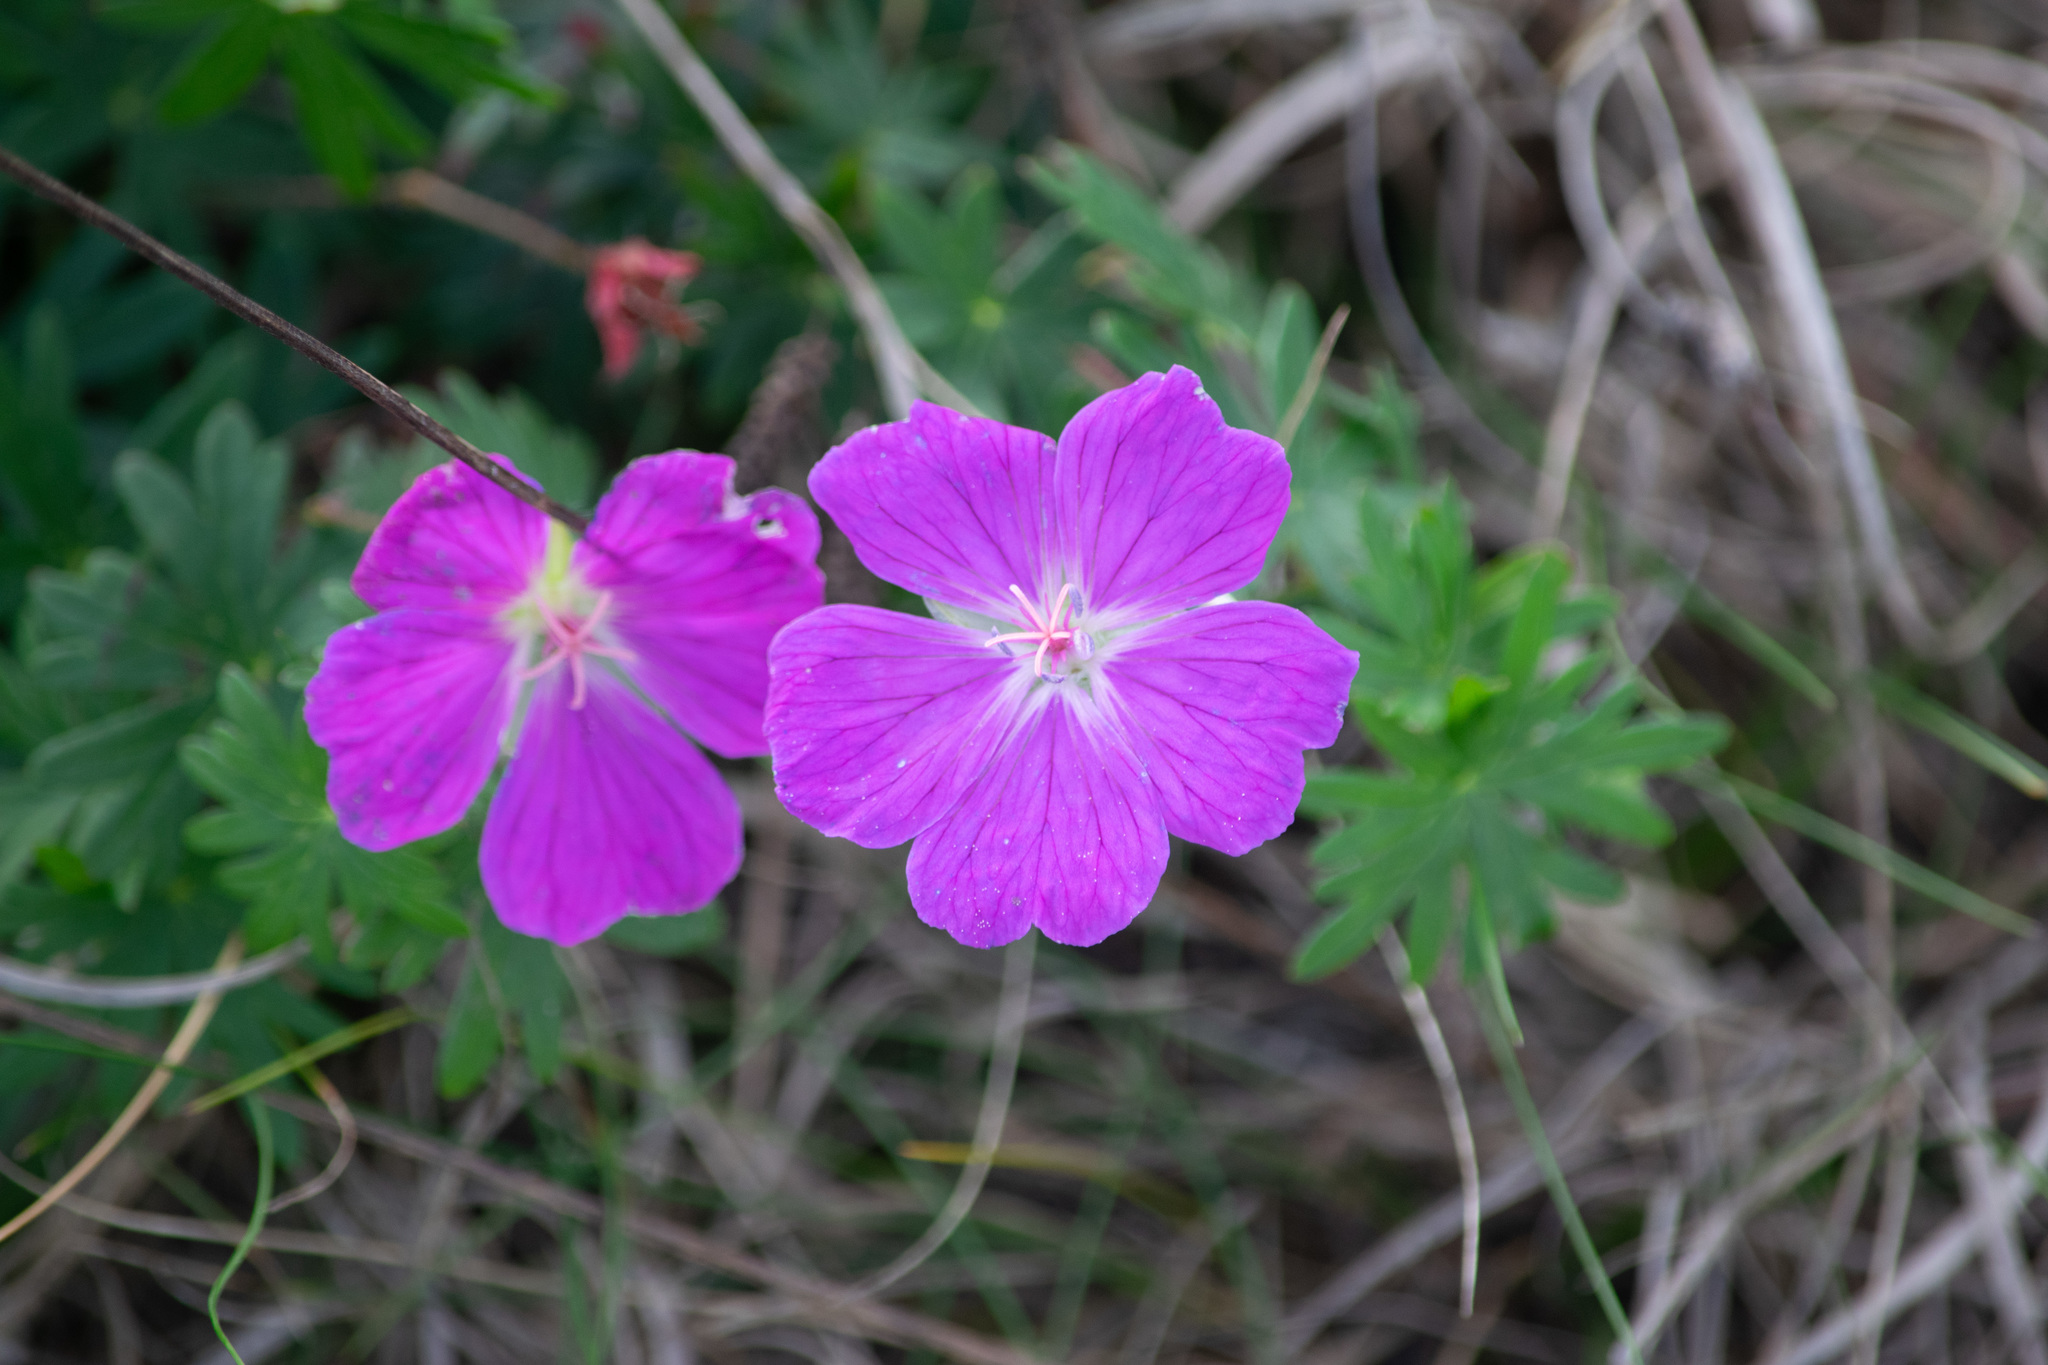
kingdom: Plantae
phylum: Tracheophyta
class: Magnoliopsida
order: Geraniales
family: Geraniaceae
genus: Geranium
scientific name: Geranium sanguineum
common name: Bloody crane's-bill
